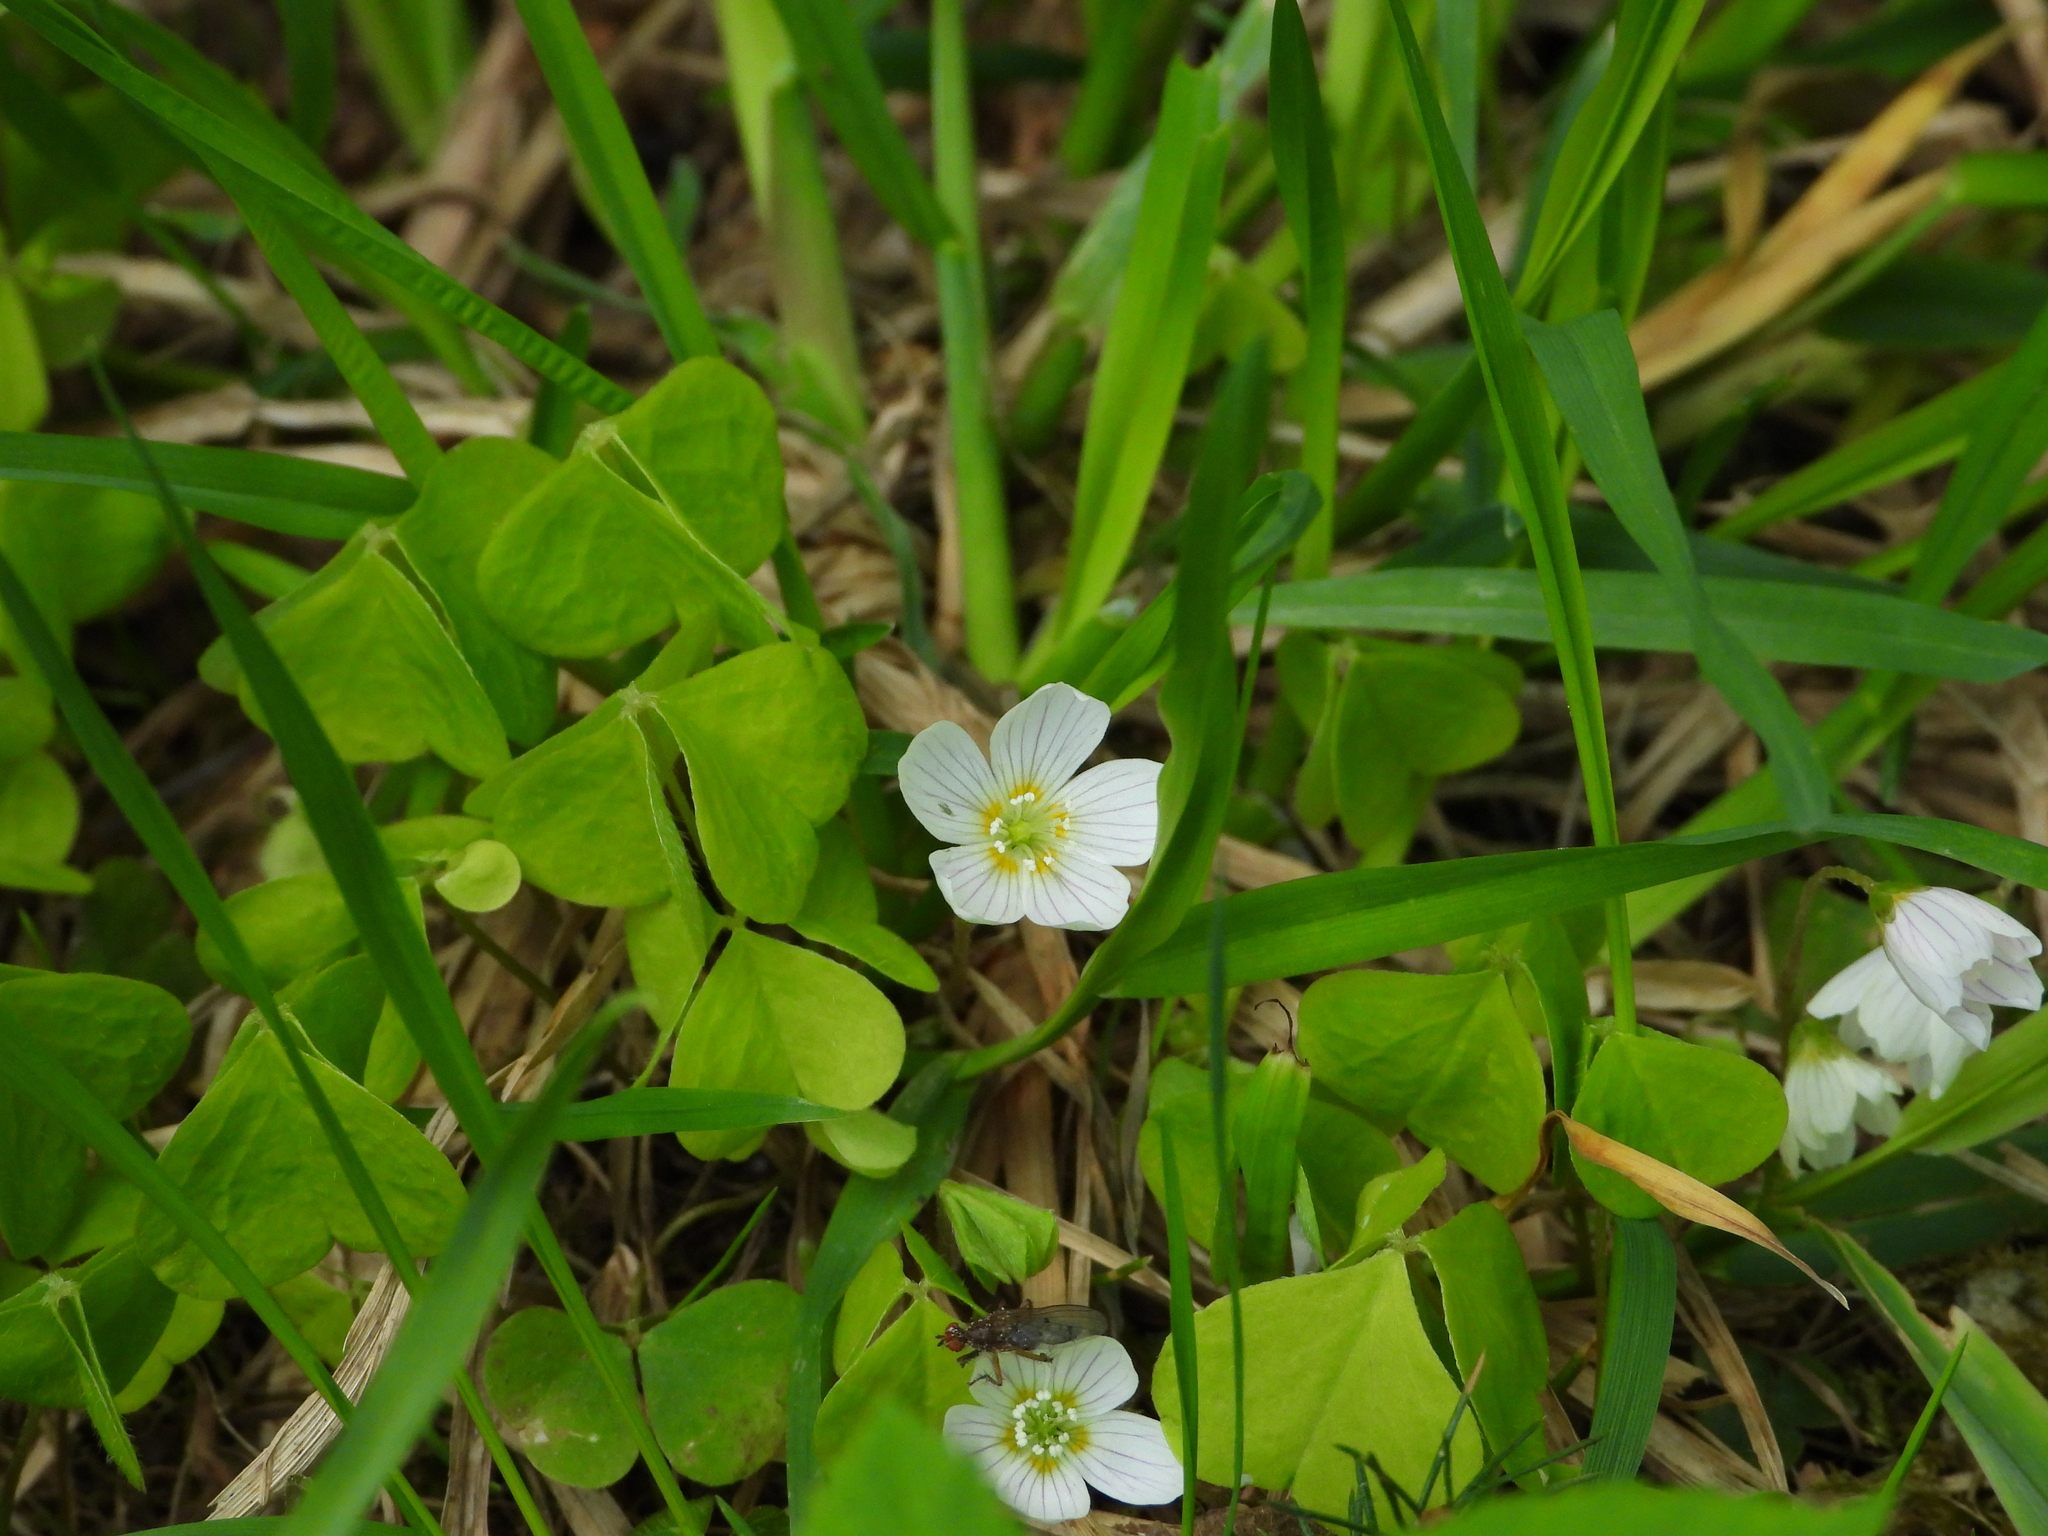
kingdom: Plantae
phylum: Tracheophyta
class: Magnoliopsida
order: Oxalidales
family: Oxalidaceae
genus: Oxalis
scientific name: Oxalis acetosella
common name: Wood-sorrel
